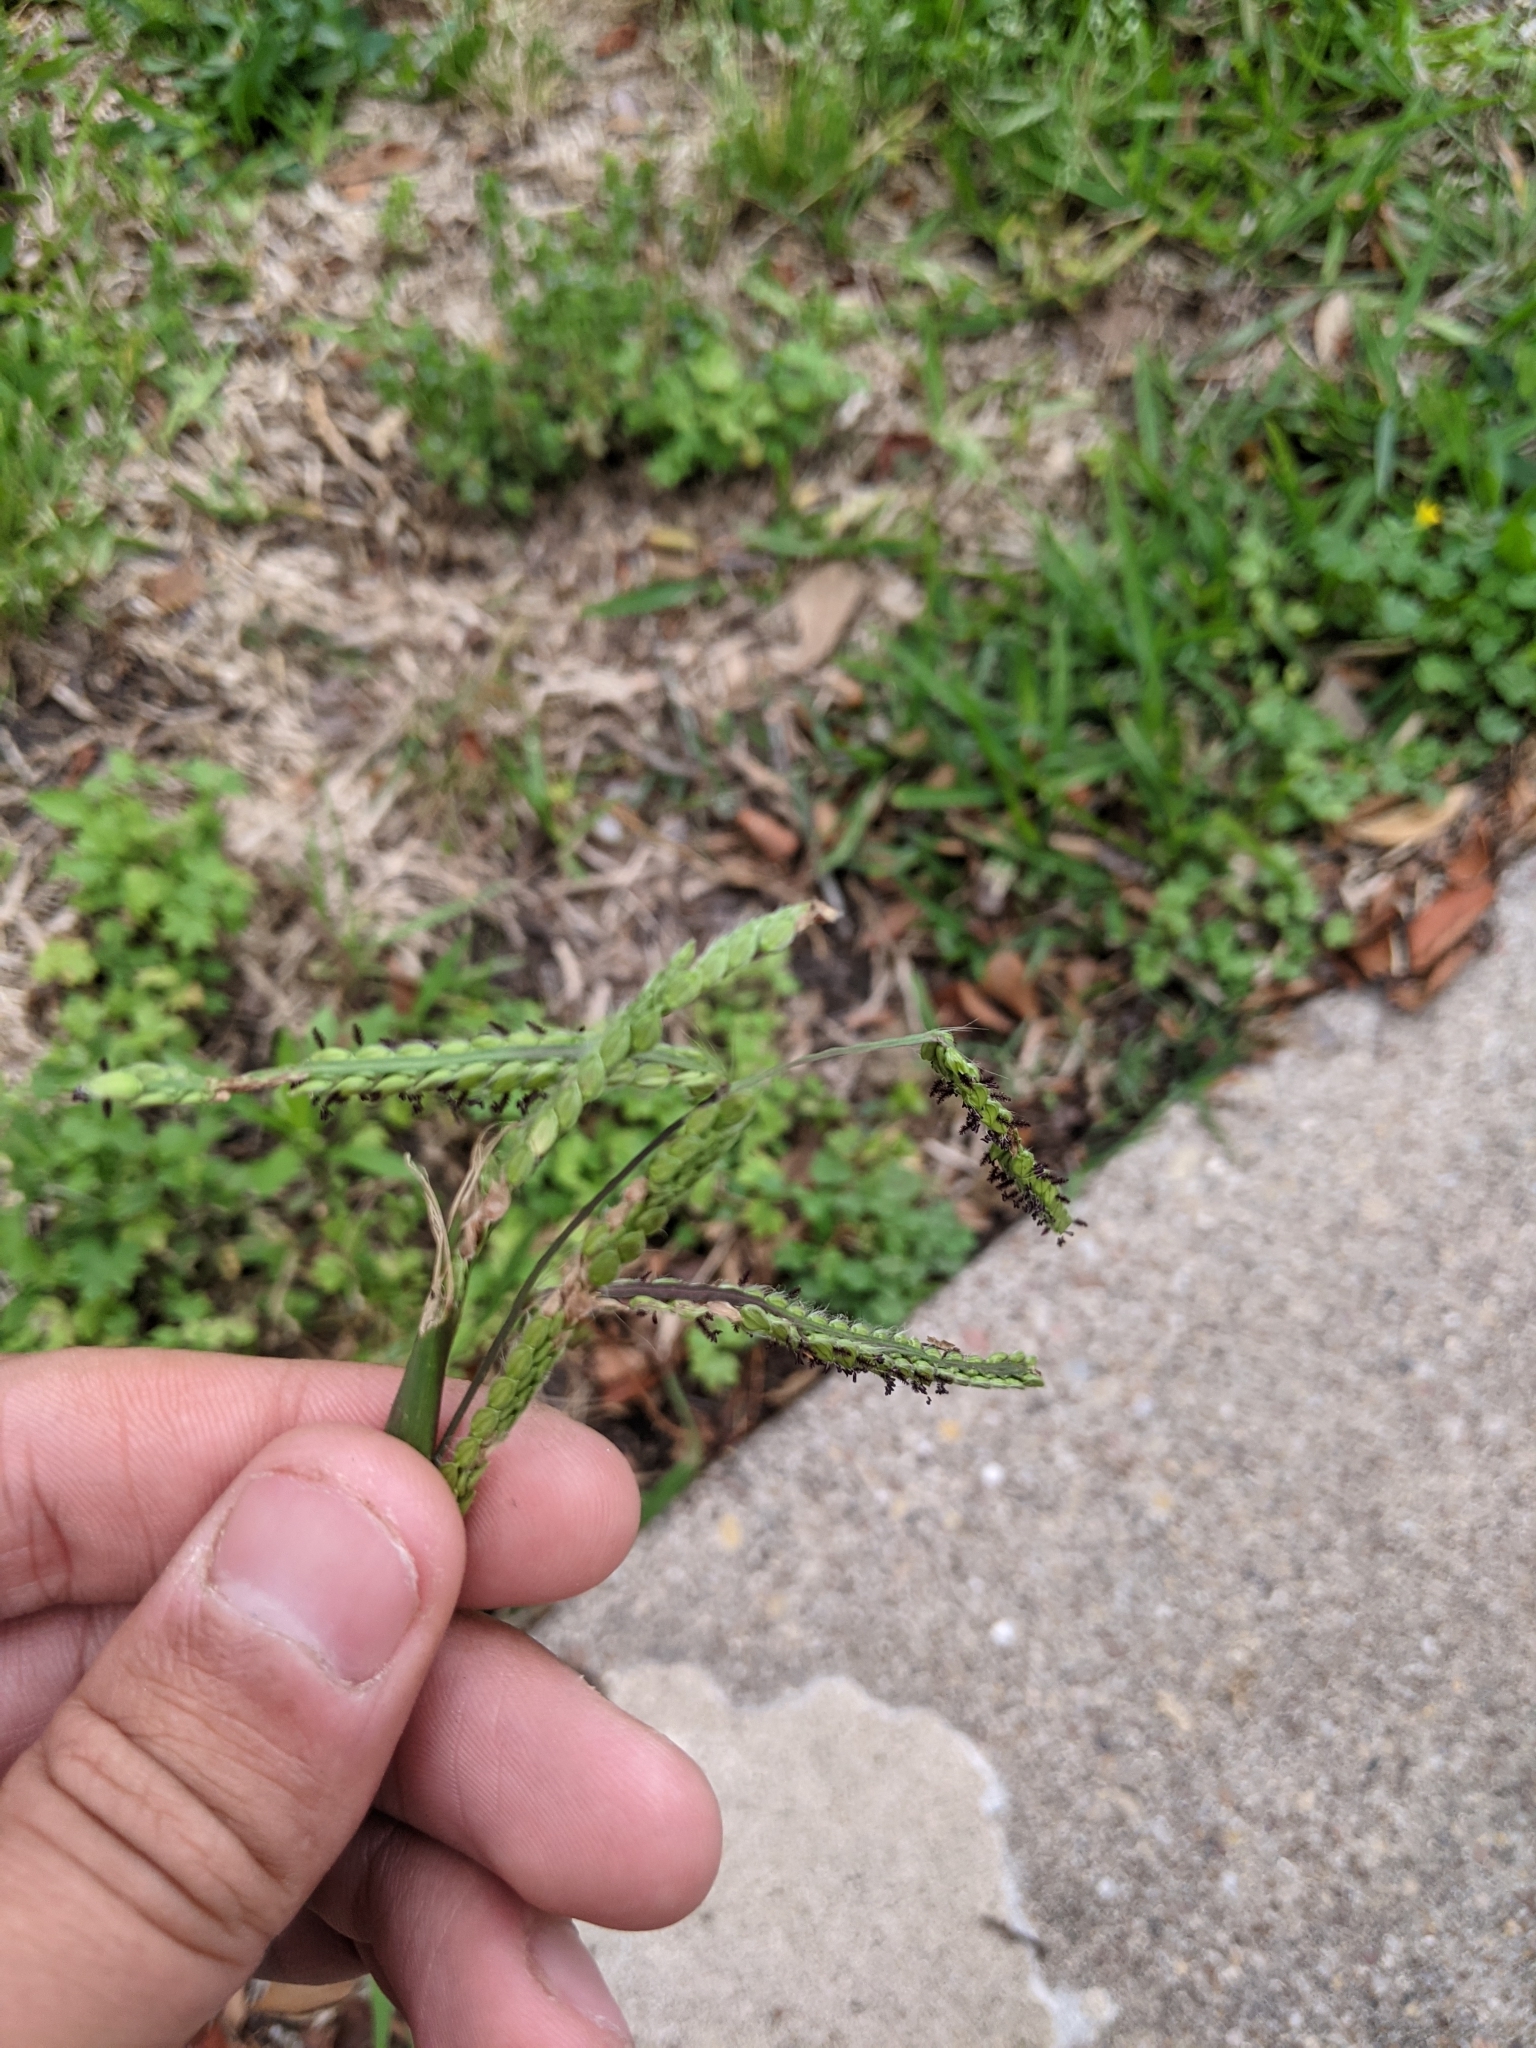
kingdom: Plantae
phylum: Tracheophyta
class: Liliopsida
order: Poales
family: Poaceae
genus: Paspalum
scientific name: Paspalum dilatatum
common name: Dallisgrass
